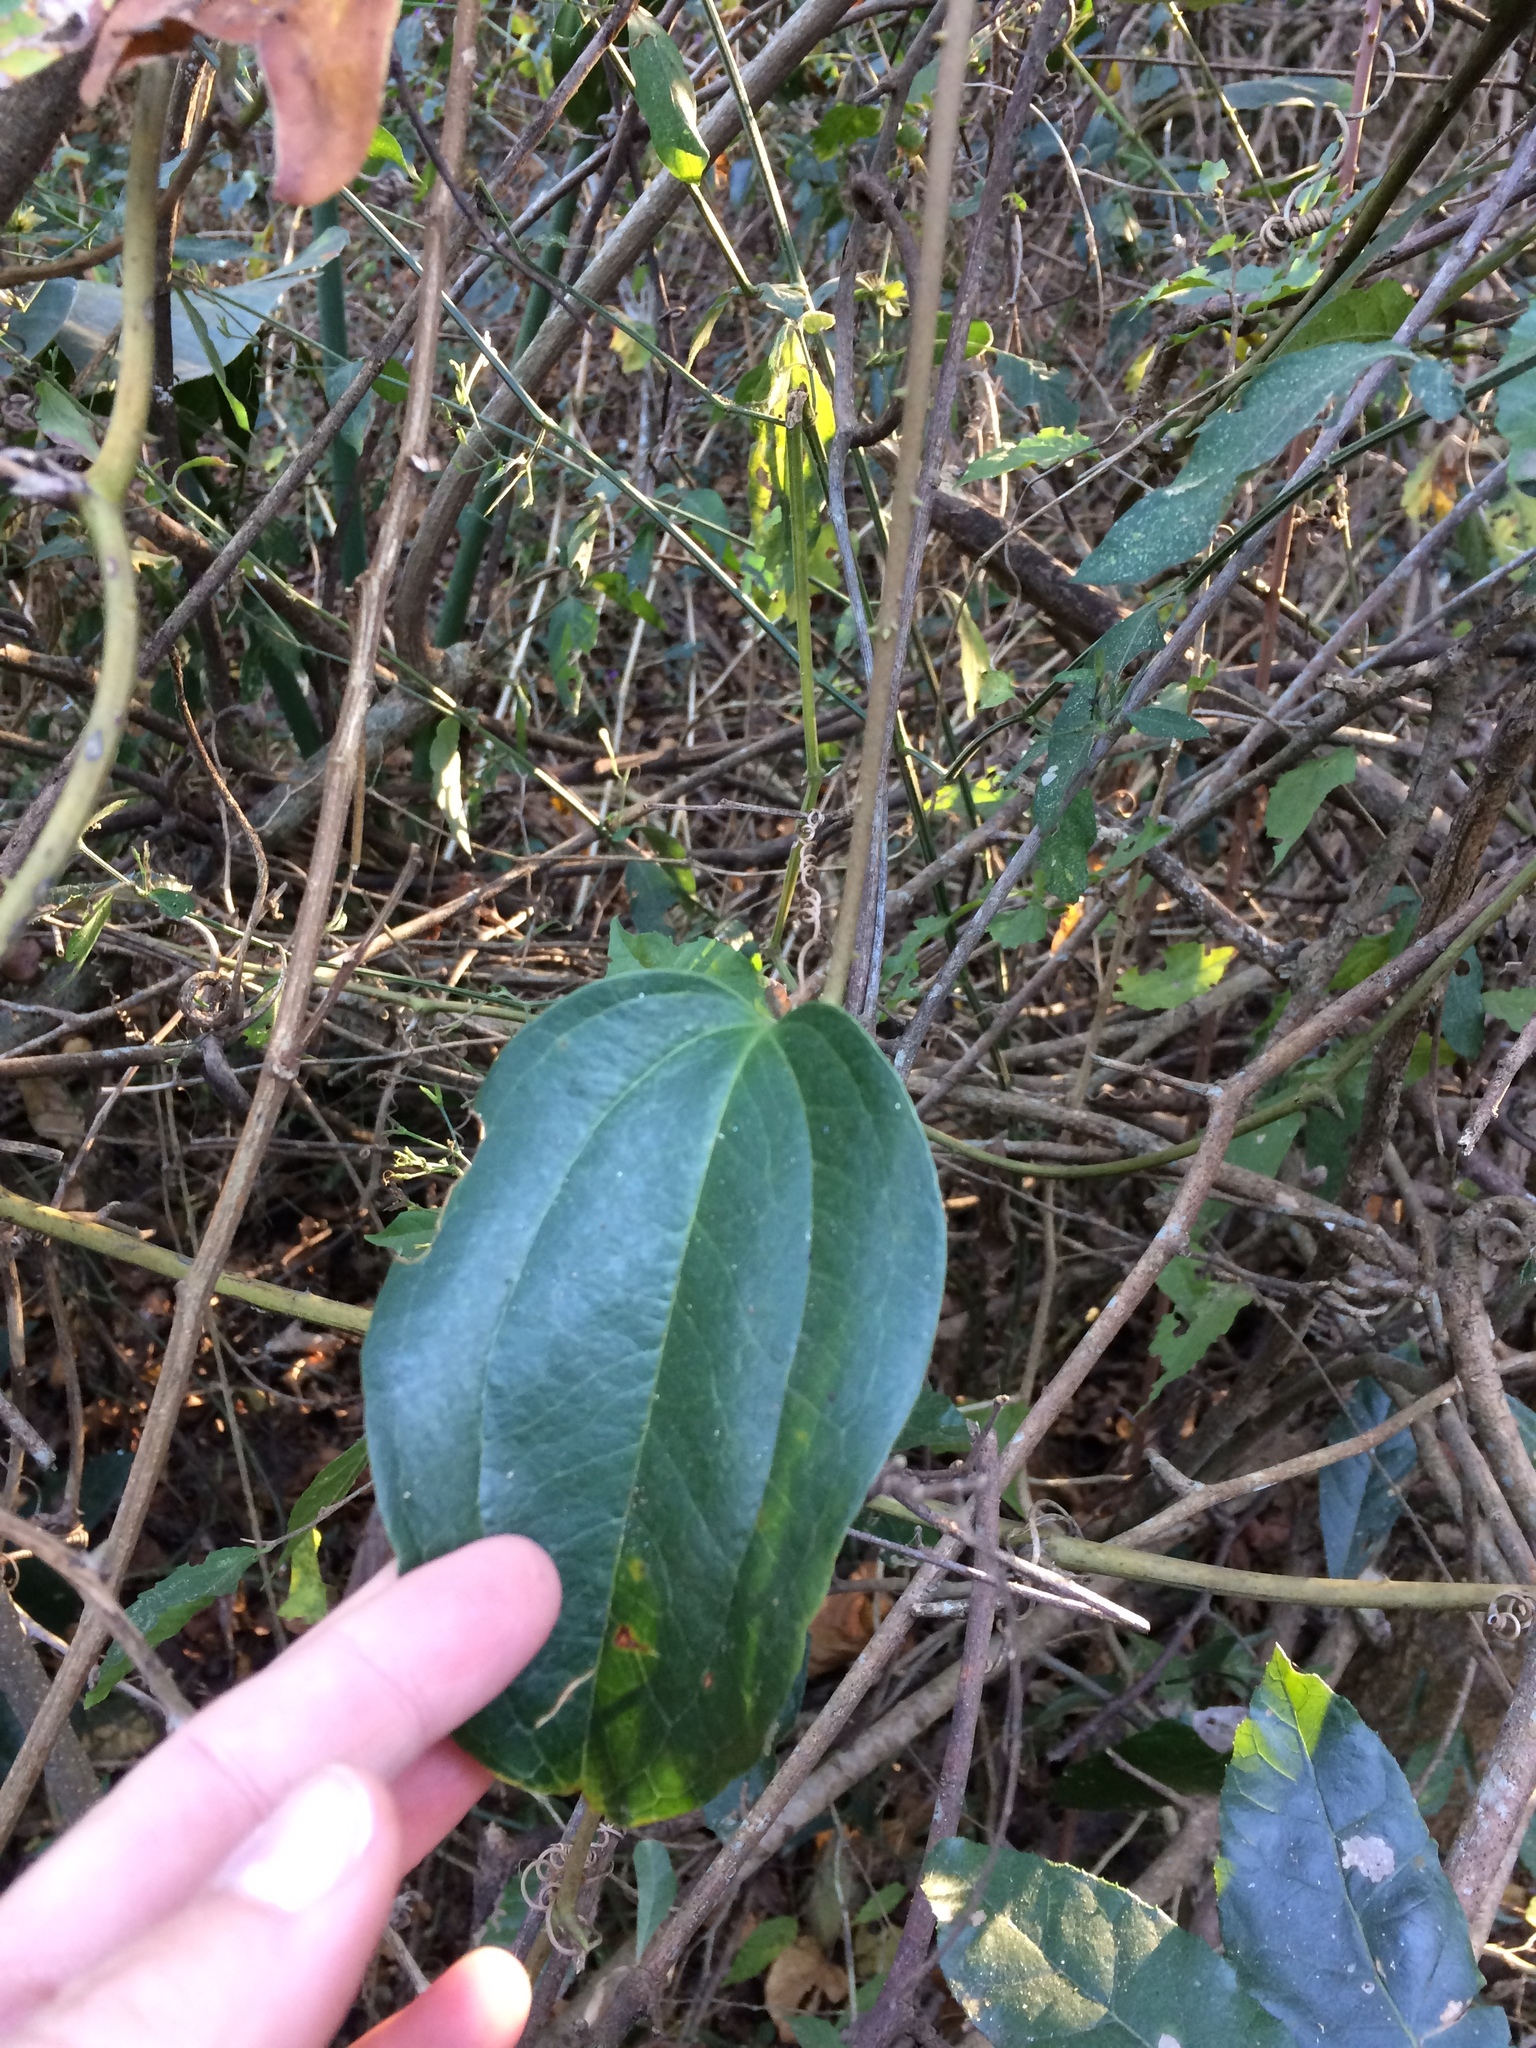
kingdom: Plantae
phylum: Tracheophyta
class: Liliopsida
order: Liliales
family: Smilacaceae
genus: Smilax
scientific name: Smilax anceps
